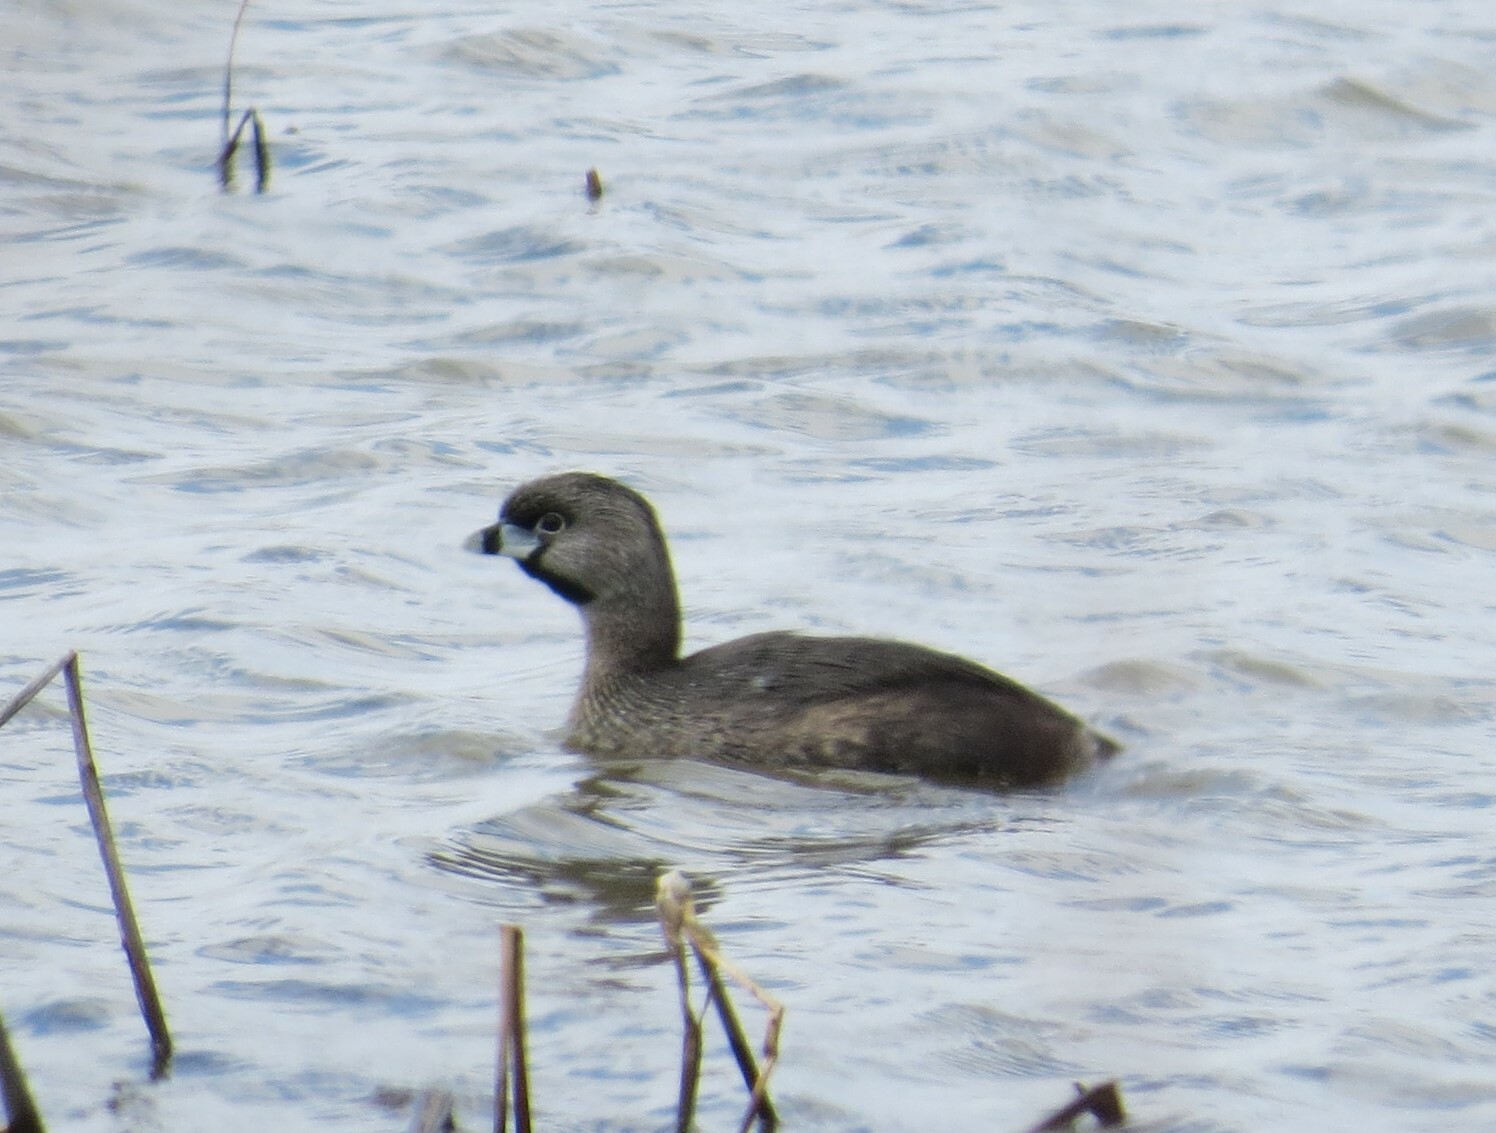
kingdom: Animalia
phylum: Chordata
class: Aves
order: Podicipediformes
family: Podicipedidae
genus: Podilymbus
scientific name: Podilymbus podiceps
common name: Pied-billed grebe
